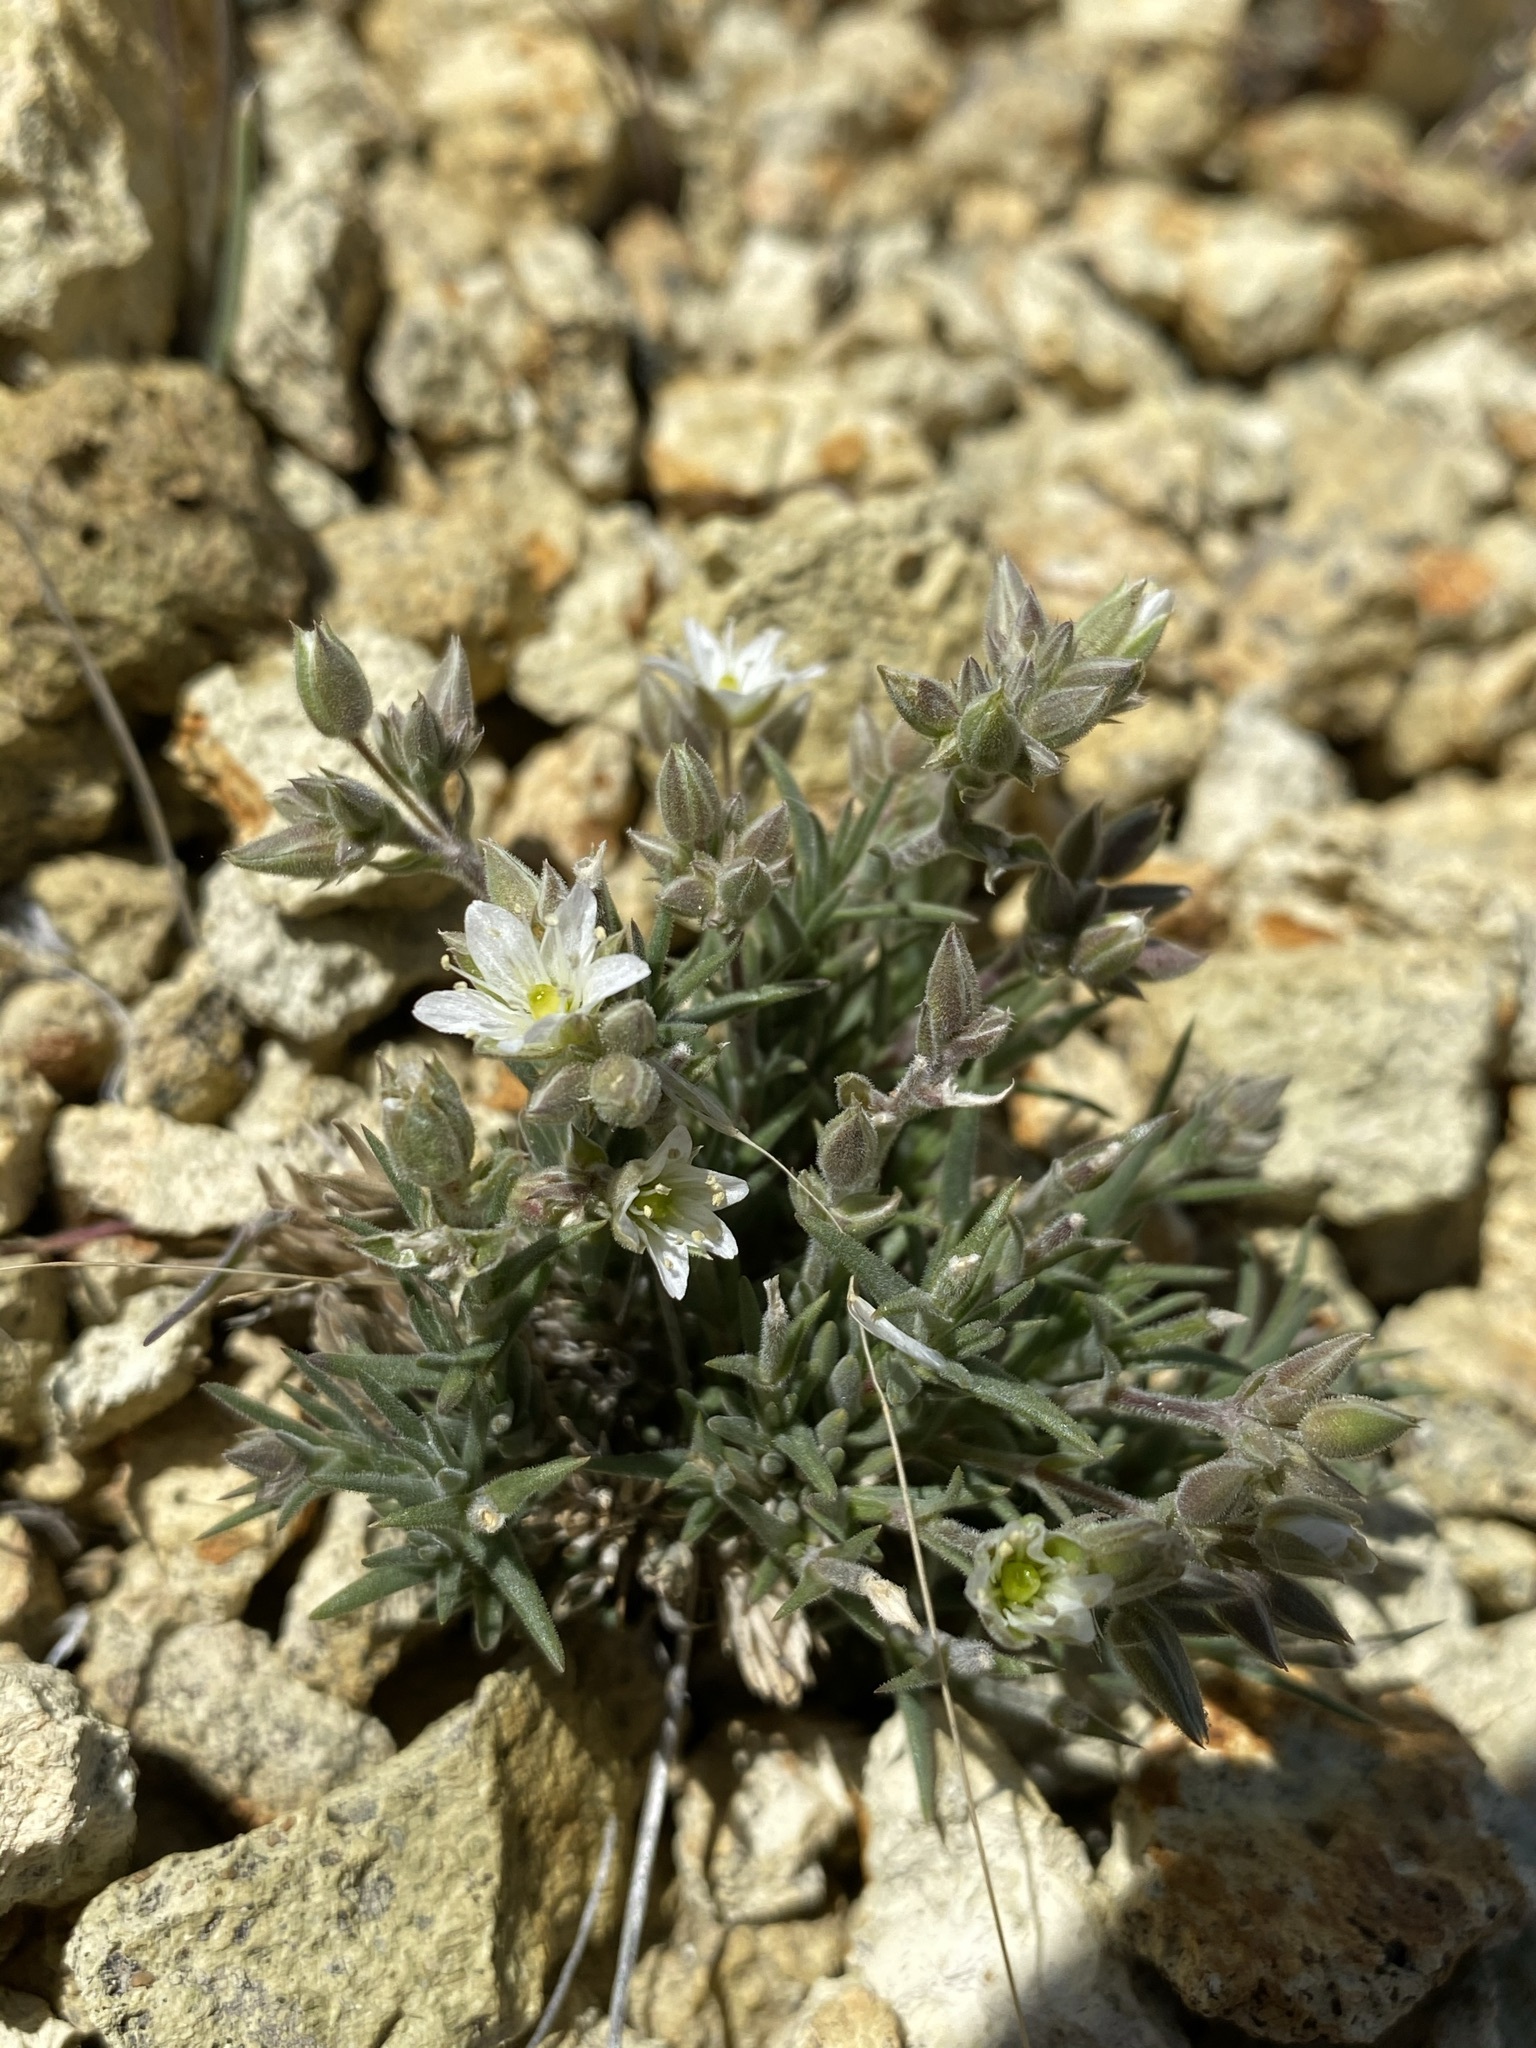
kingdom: Plantae
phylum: Tracheophyta
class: Magnoliopsida
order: Caryophyllales
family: Caryophyllaceae
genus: Sabulina
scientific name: Sabulina nuttallii
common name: Nuttall's stitchwort
